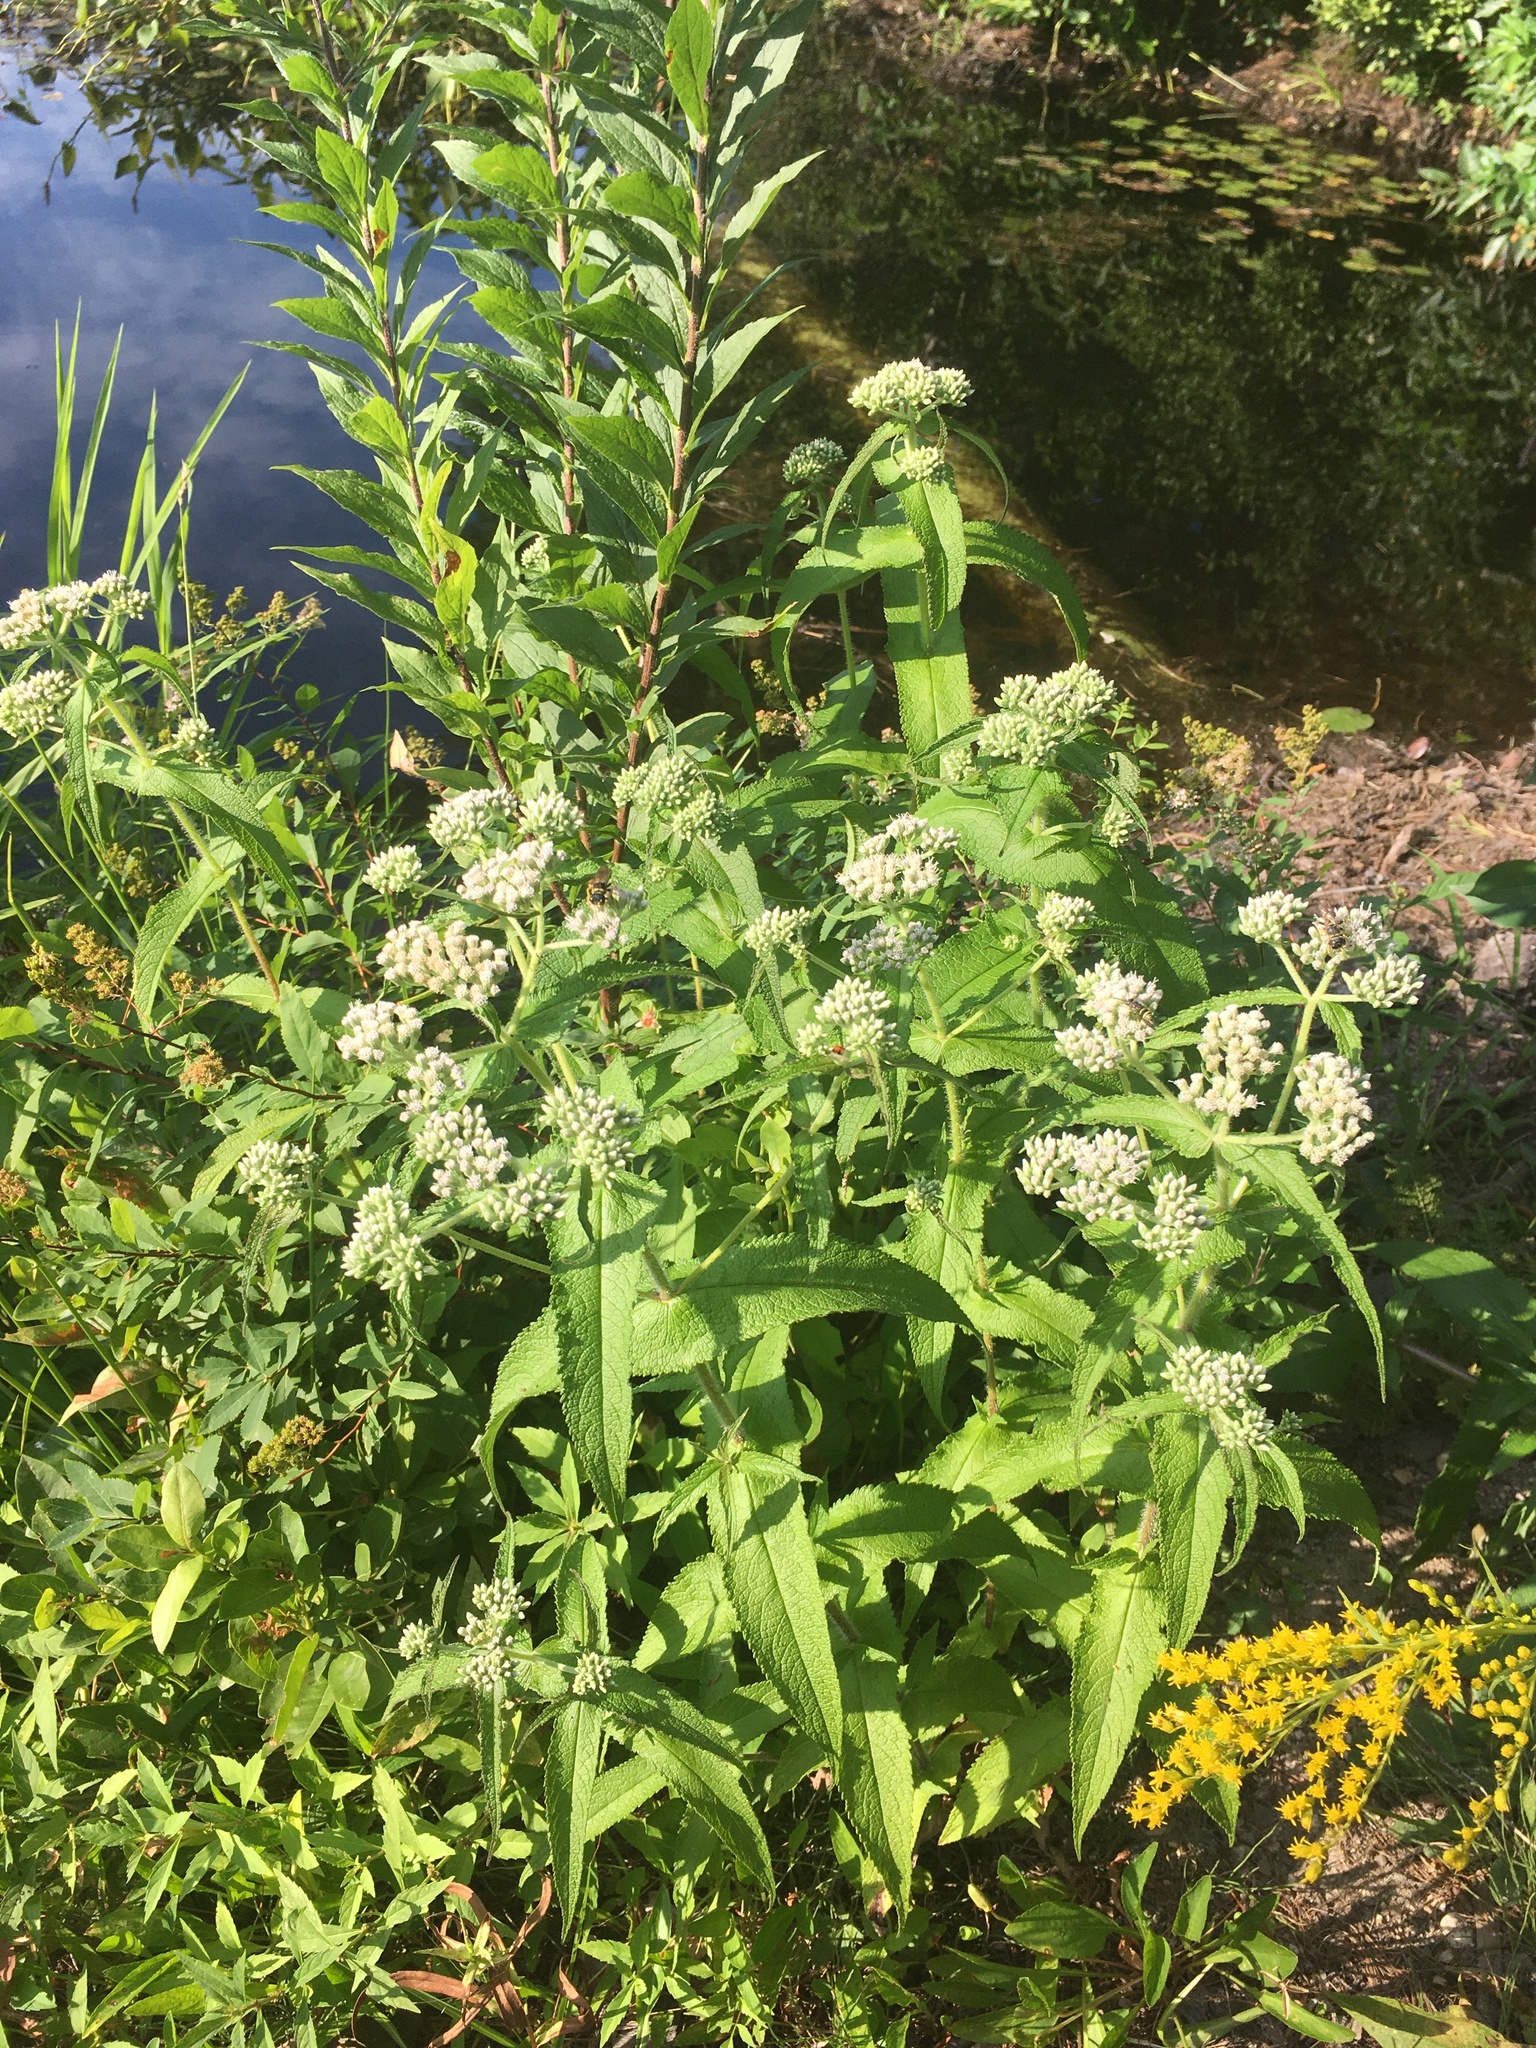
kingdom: Plantae
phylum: Tracheophyta
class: Magnoliopsida
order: Asterales
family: Asteraceae
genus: Eupatorium
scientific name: Eupatorium perfoliatum
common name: Boneset
